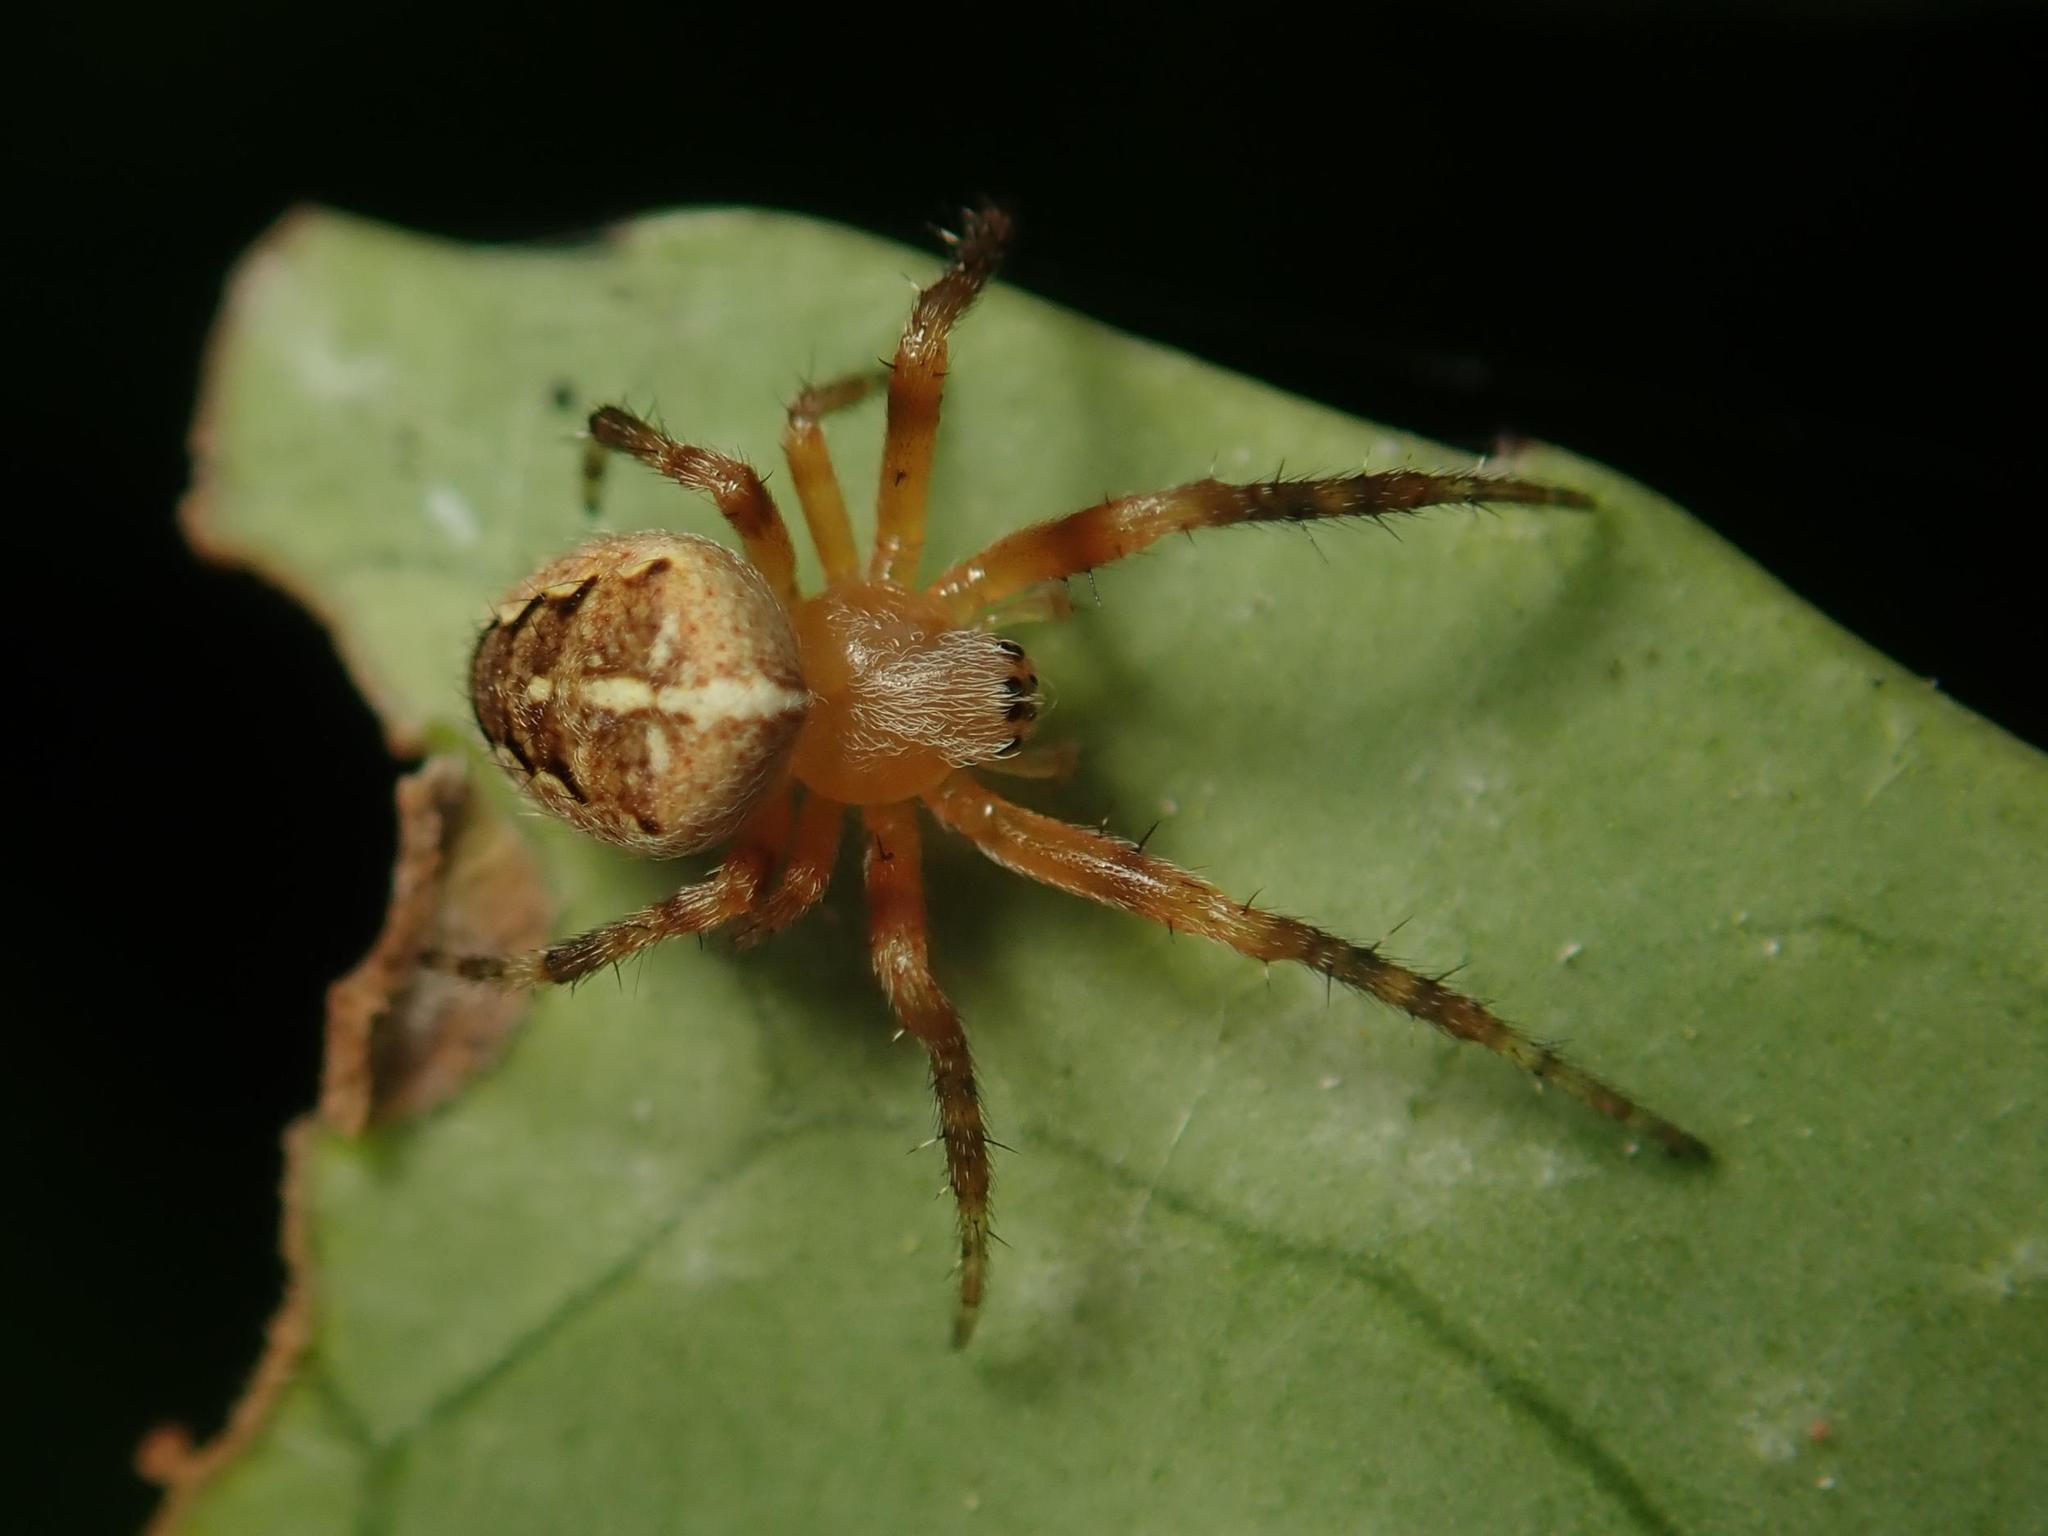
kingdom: Animalia
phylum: Arthropoda
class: Arachnida
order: Araneae
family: Araneidae
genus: Araneus
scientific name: Araneus diadematus
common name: Cross orbweaver
